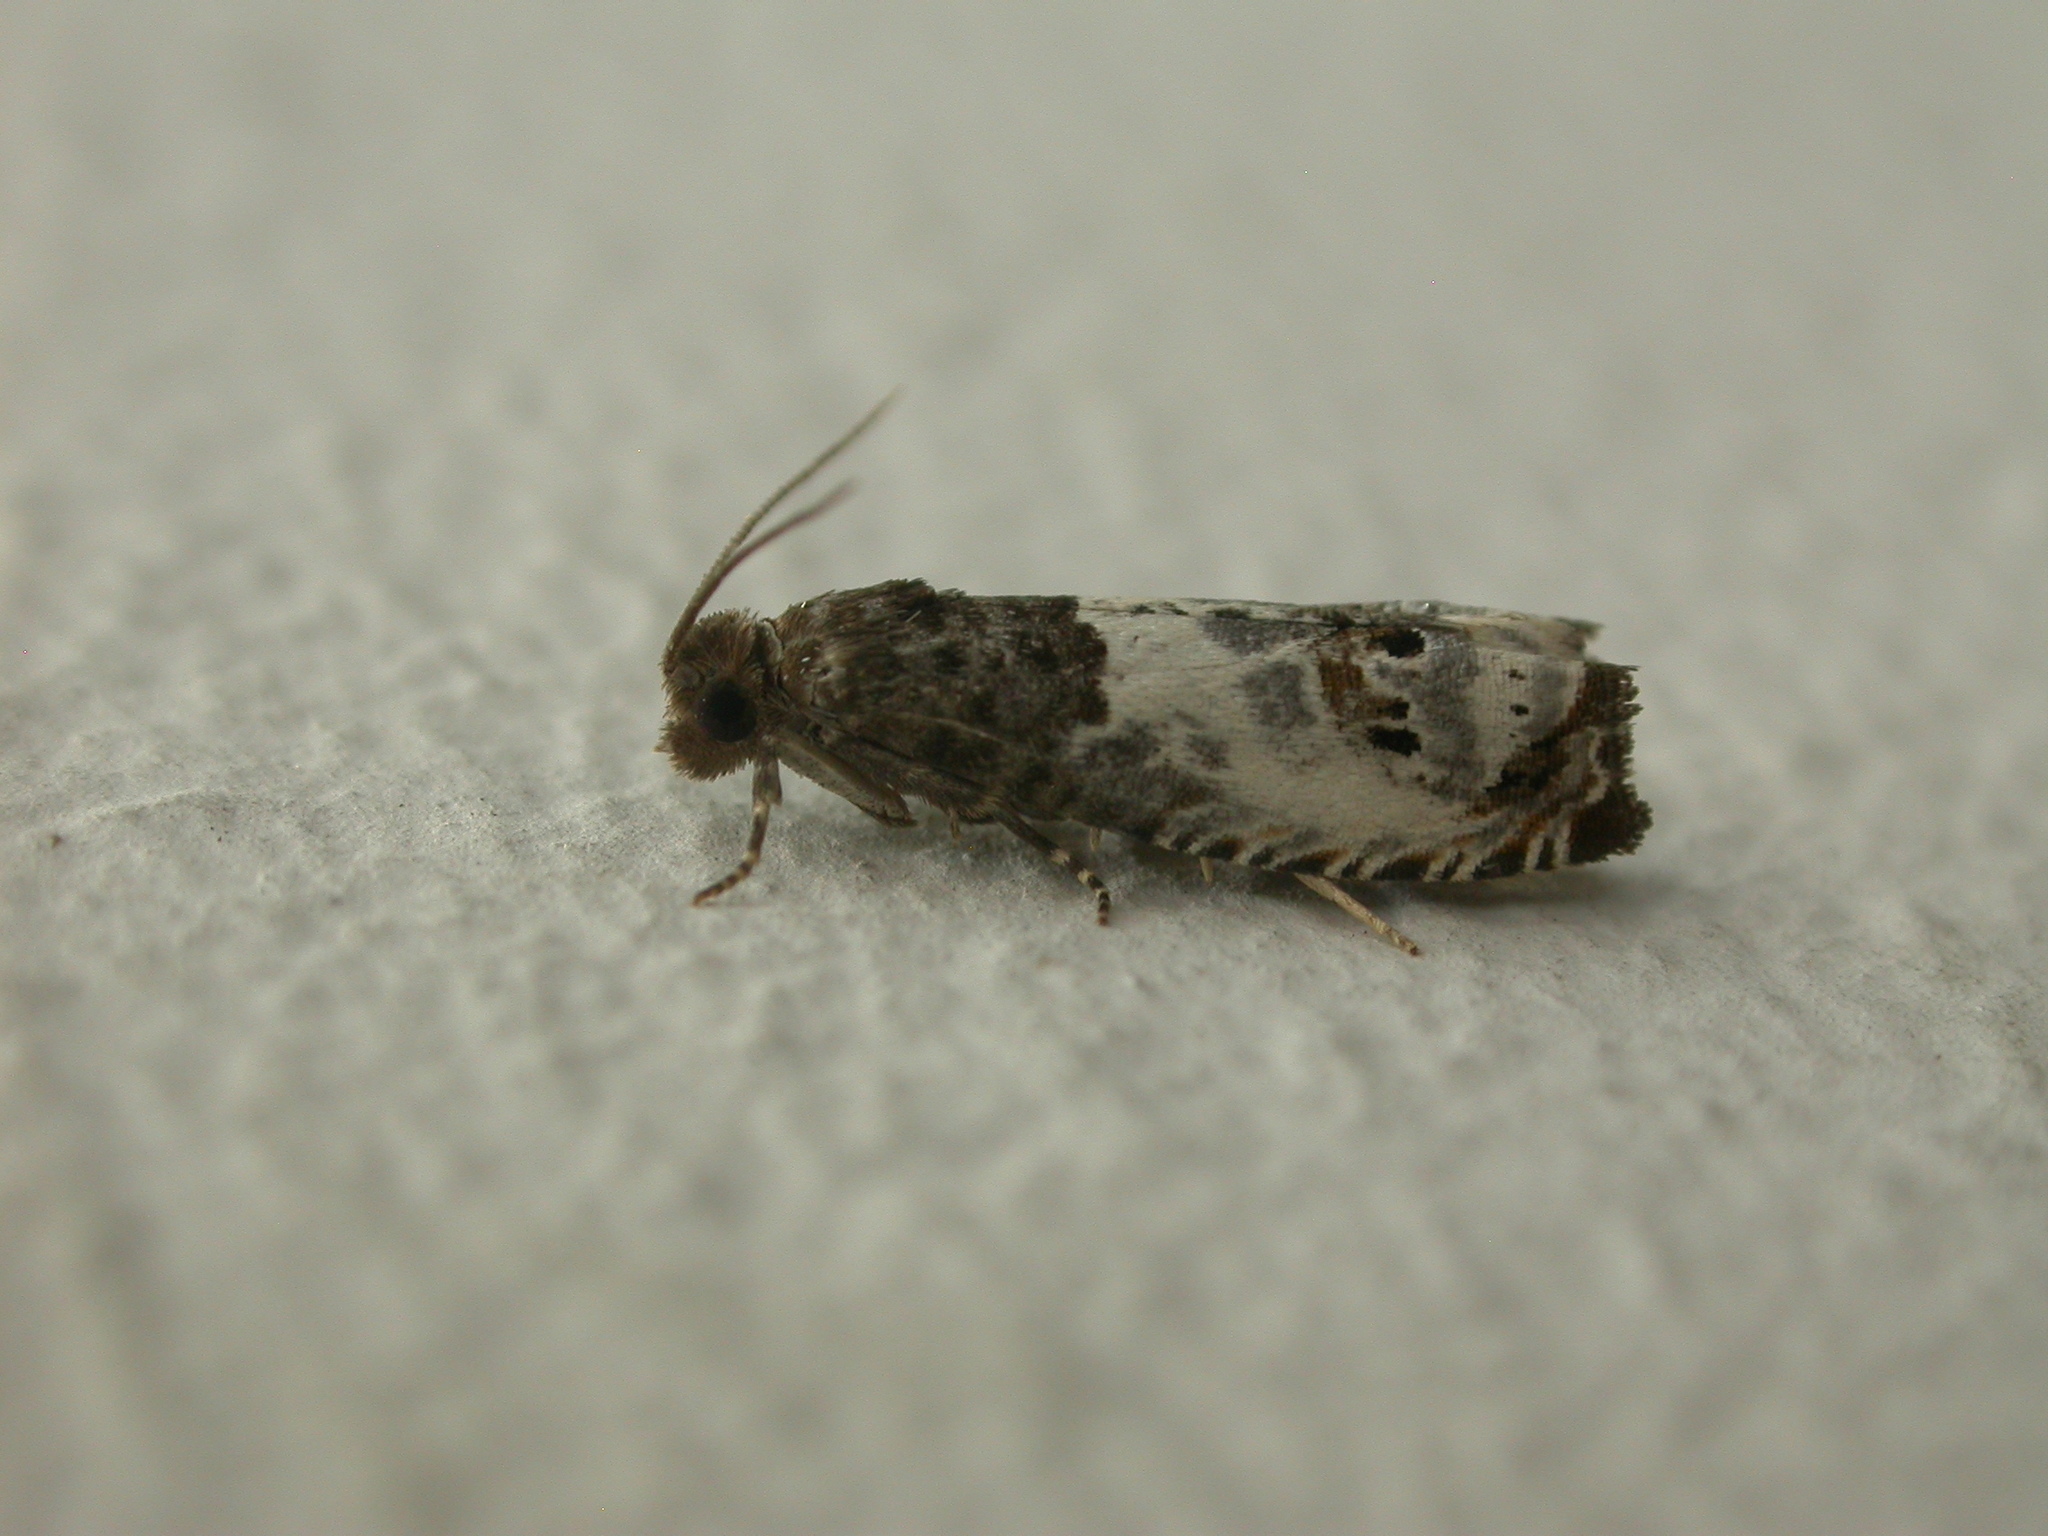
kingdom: Animalia
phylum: Arthropoda
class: Insecta
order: Lepidoptera
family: Tortricidae
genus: Notocelia
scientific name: Notocelia rosaecolana
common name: Common rose bell
